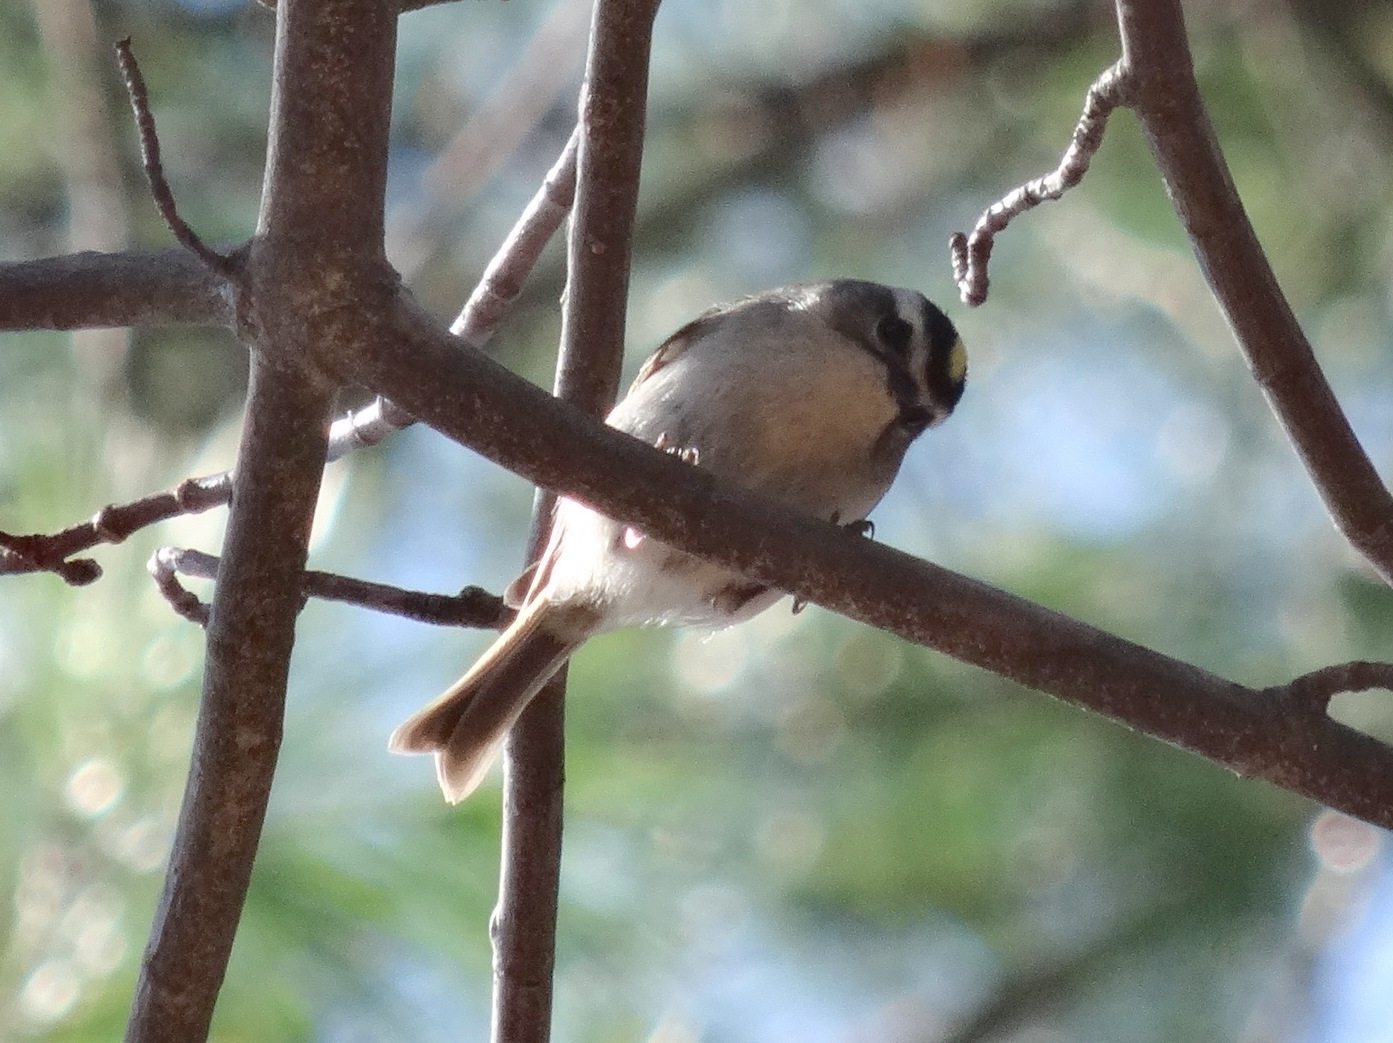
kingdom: Animalia
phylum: Chordata
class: Aves
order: Passeriformes
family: Regulidae
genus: Regulus
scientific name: Regulus satrapa
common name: Golden-crowned kinglet
